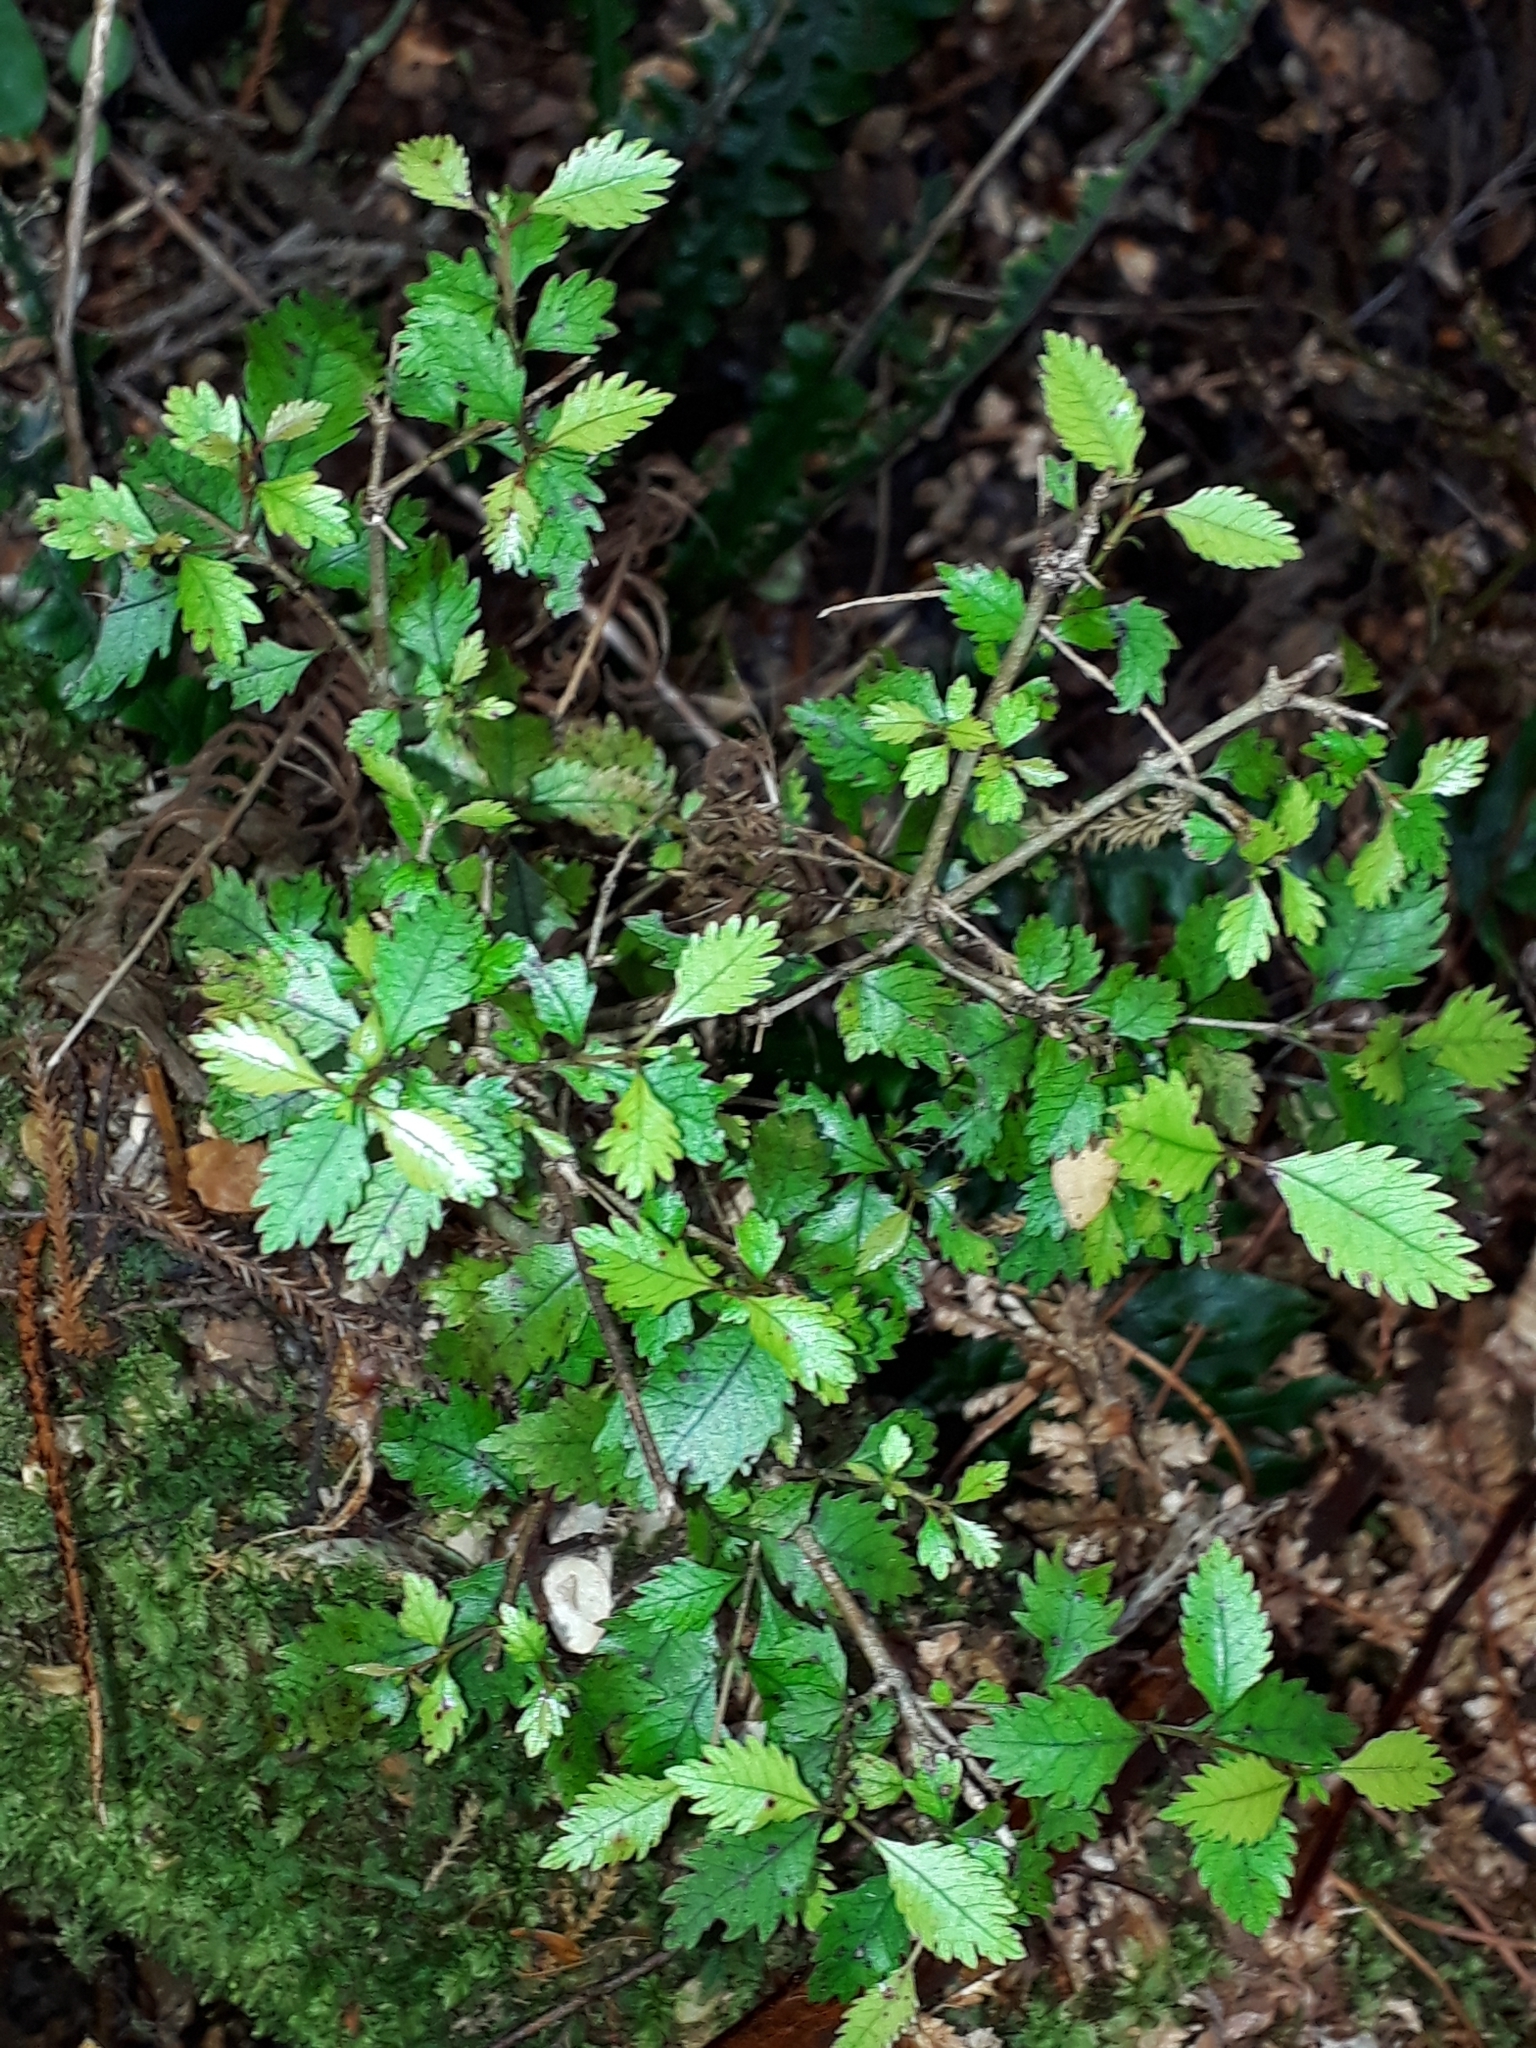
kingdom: Plantae
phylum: Tracheophyta
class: Magnoliopsida
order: Oxalidales
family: Cunoniaceae
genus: Pterophylla
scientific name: Pterophylla racemosa
